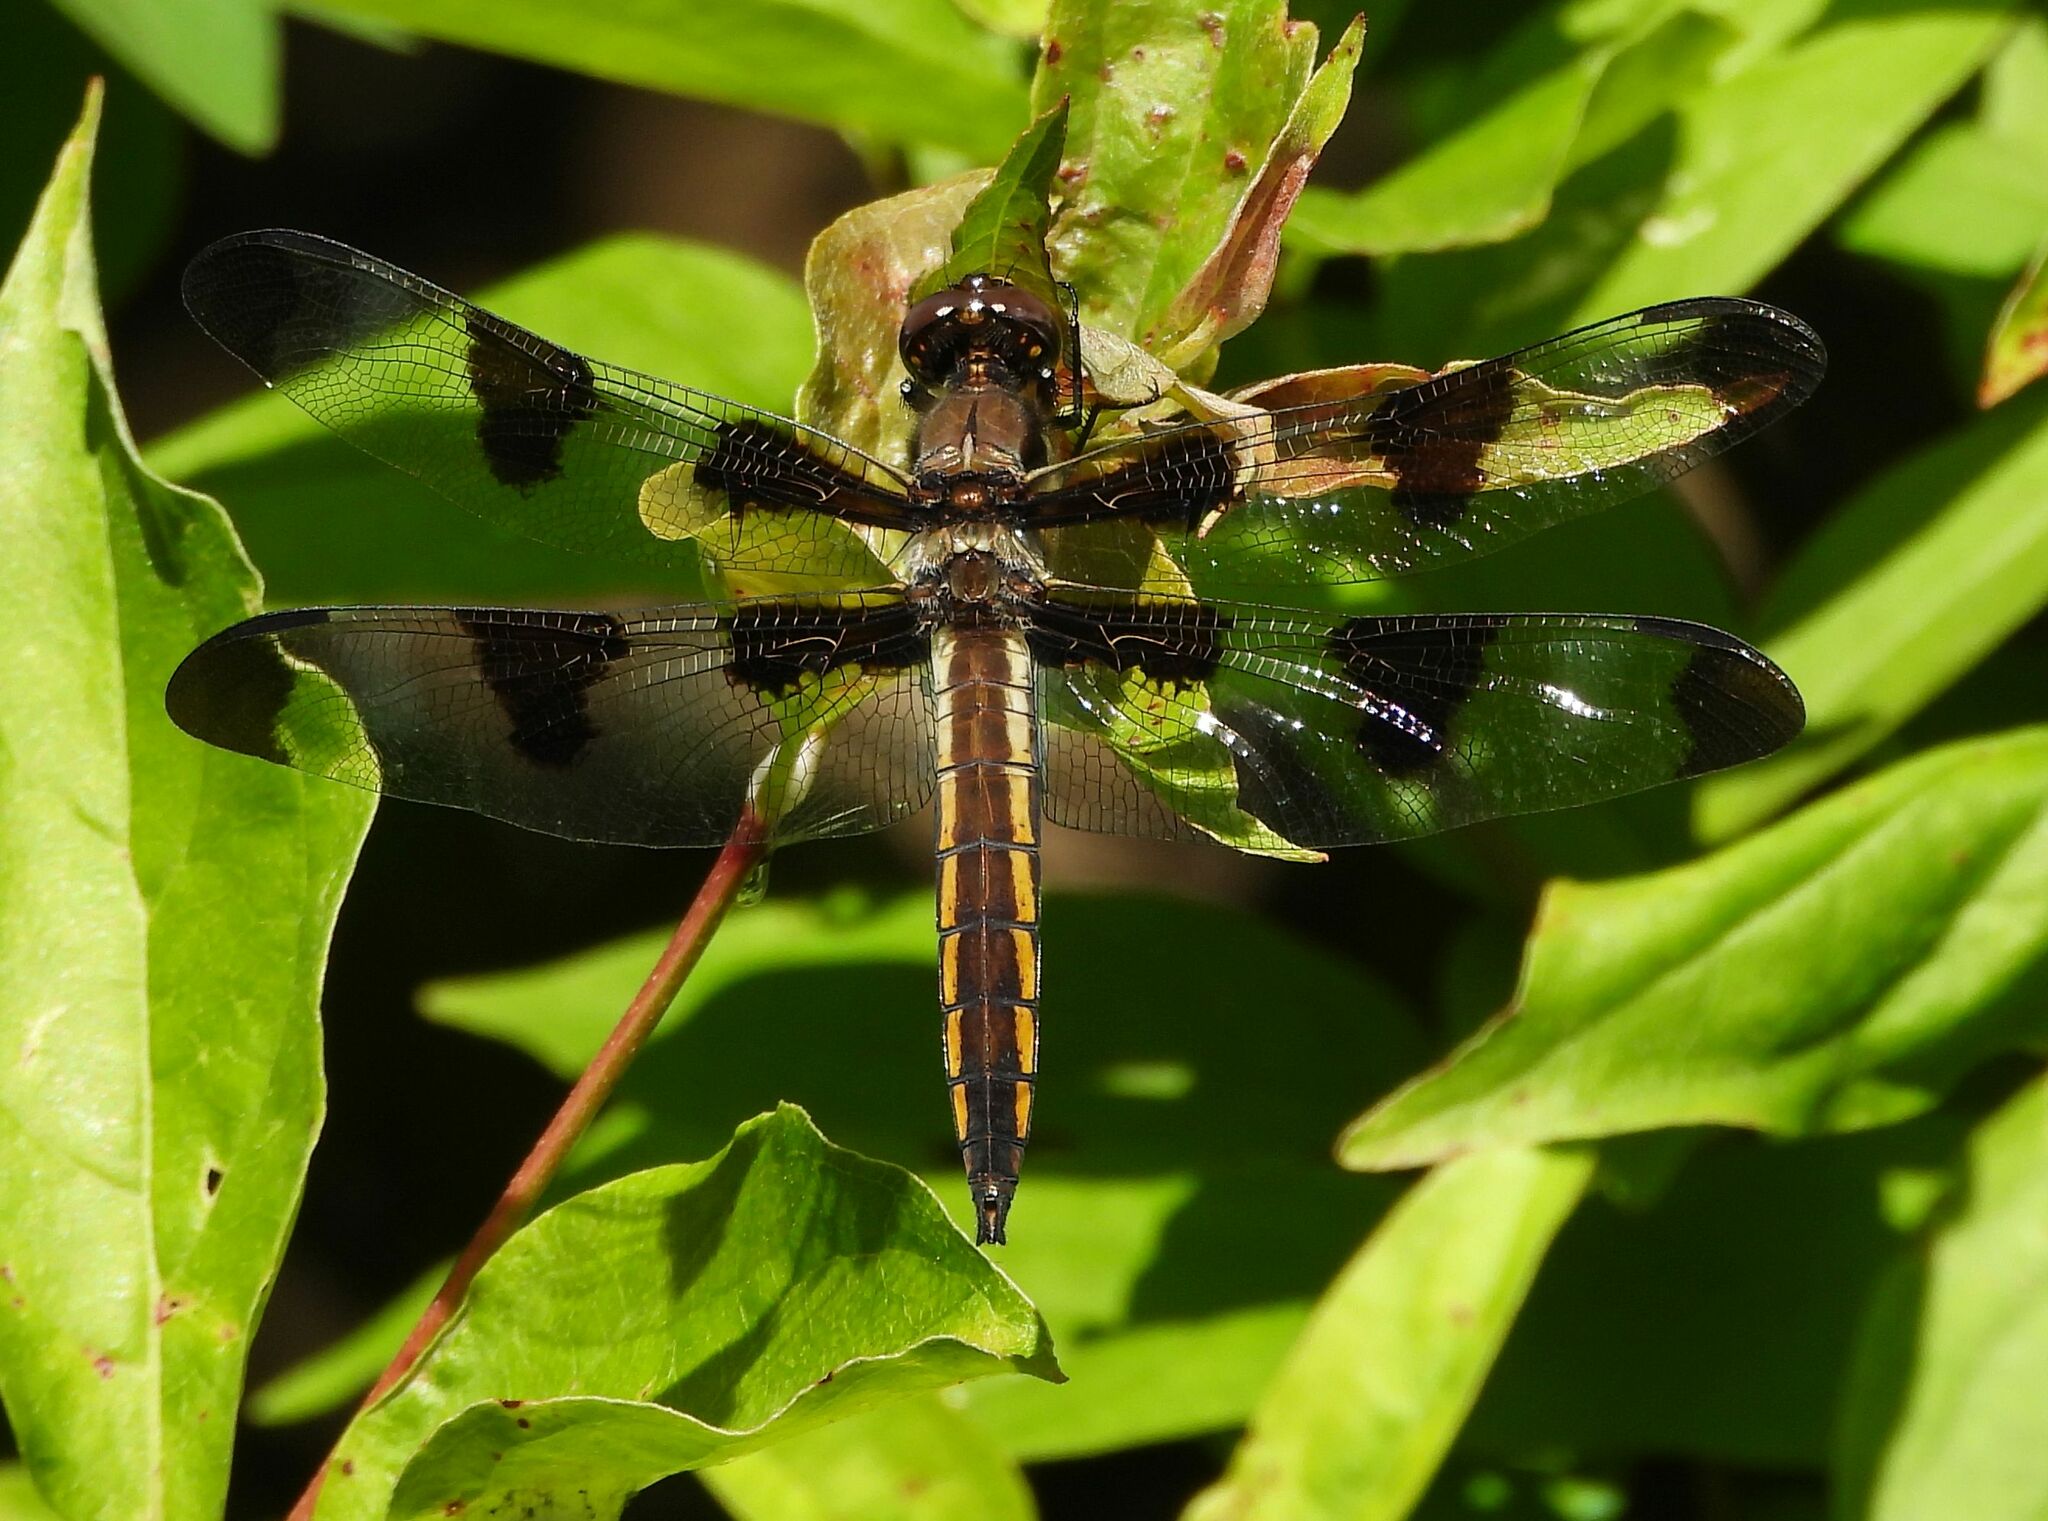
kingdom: Animalia
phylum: Arthropoda
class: Insecta
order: Odonata
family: Libellulidae
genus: Libellula
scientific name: Libellula pulchella
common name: Twelve-spotted skimmer
